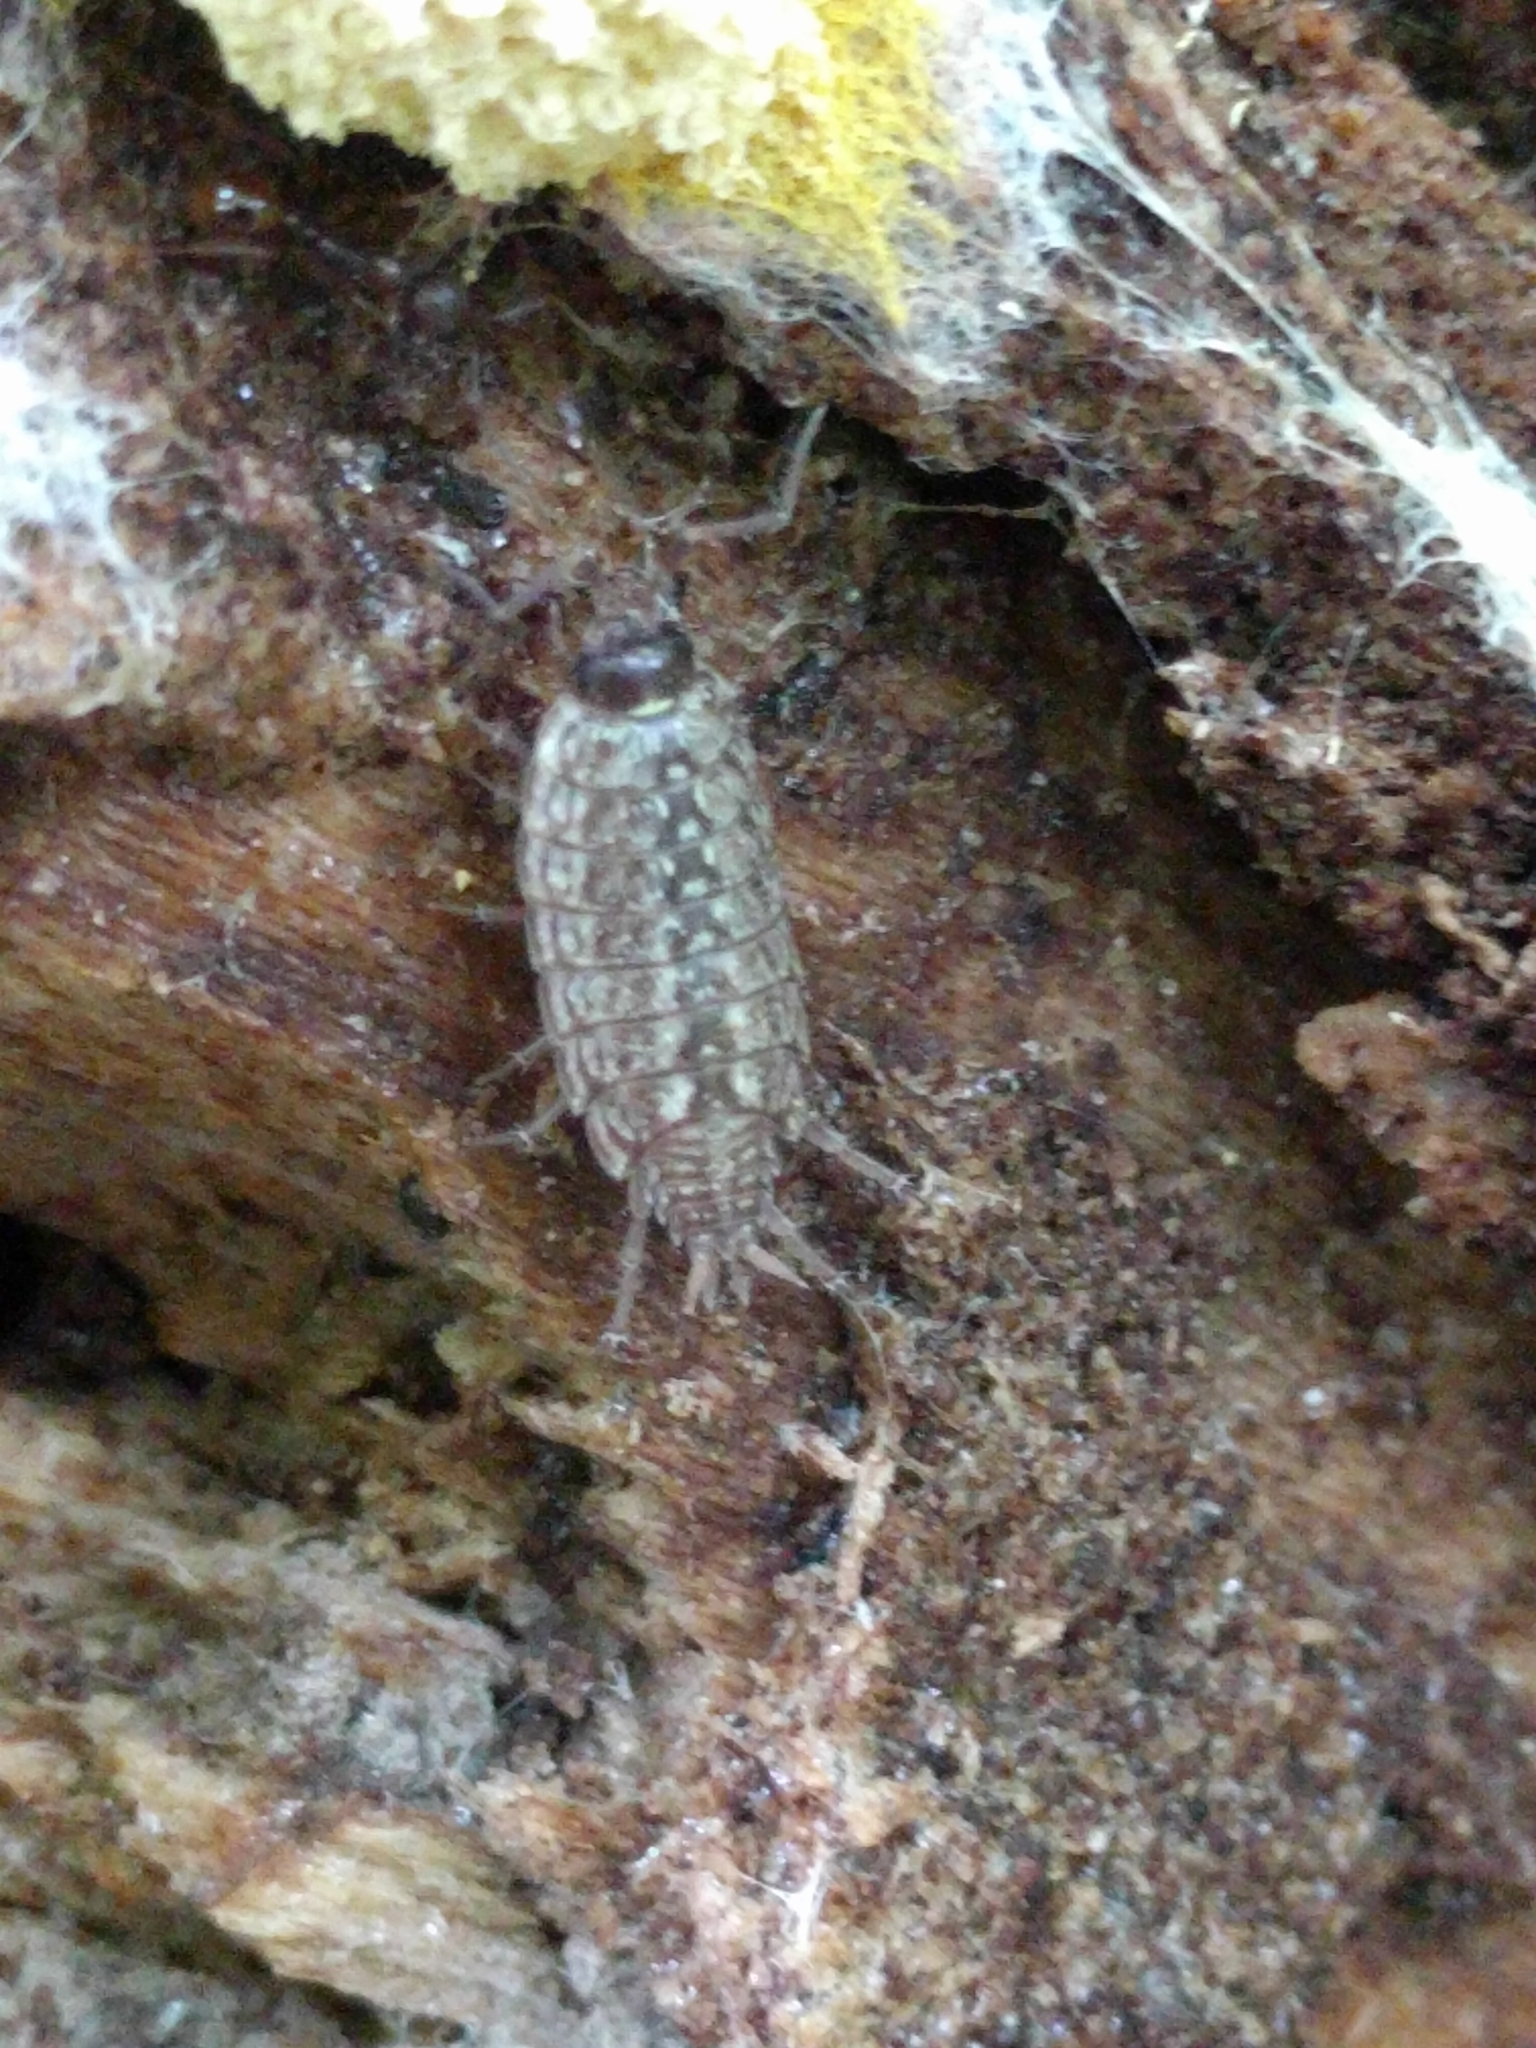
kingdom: Animalia
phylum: Arthropoda
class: Malacostraca
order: Isopoda
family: Philosciidae
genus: Philoscia
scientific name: Philoscia muscorum
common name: Common striped woodlouse
